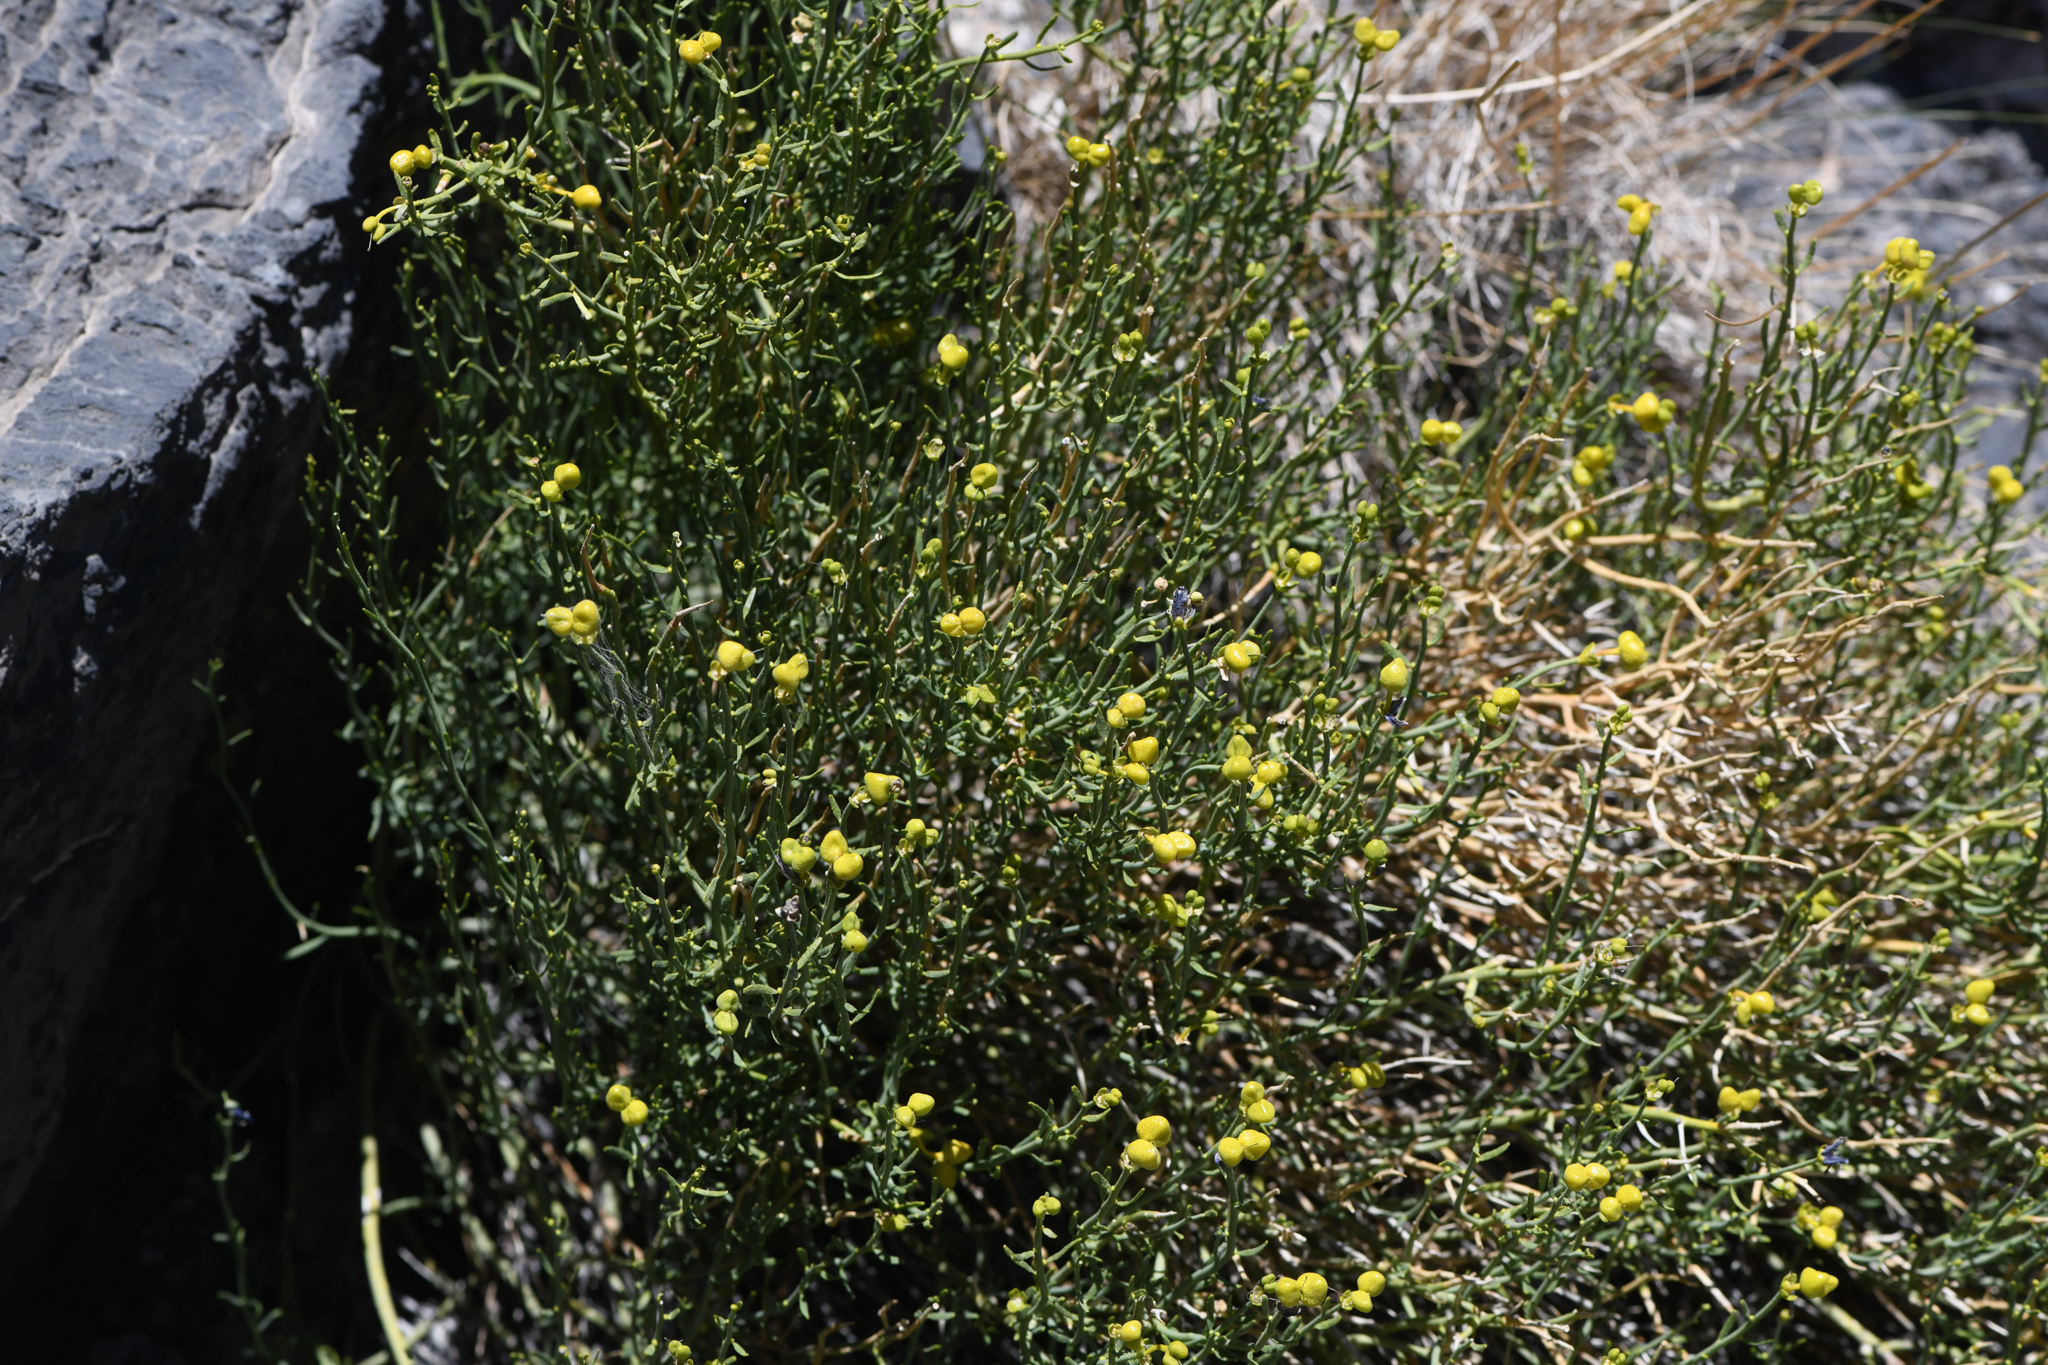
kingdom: Plantae
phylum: Tracheophyta
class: Magnoliopsida
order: Sapindales
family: Rutaceae
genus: Thamnosma
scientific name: Thamnosma montana
